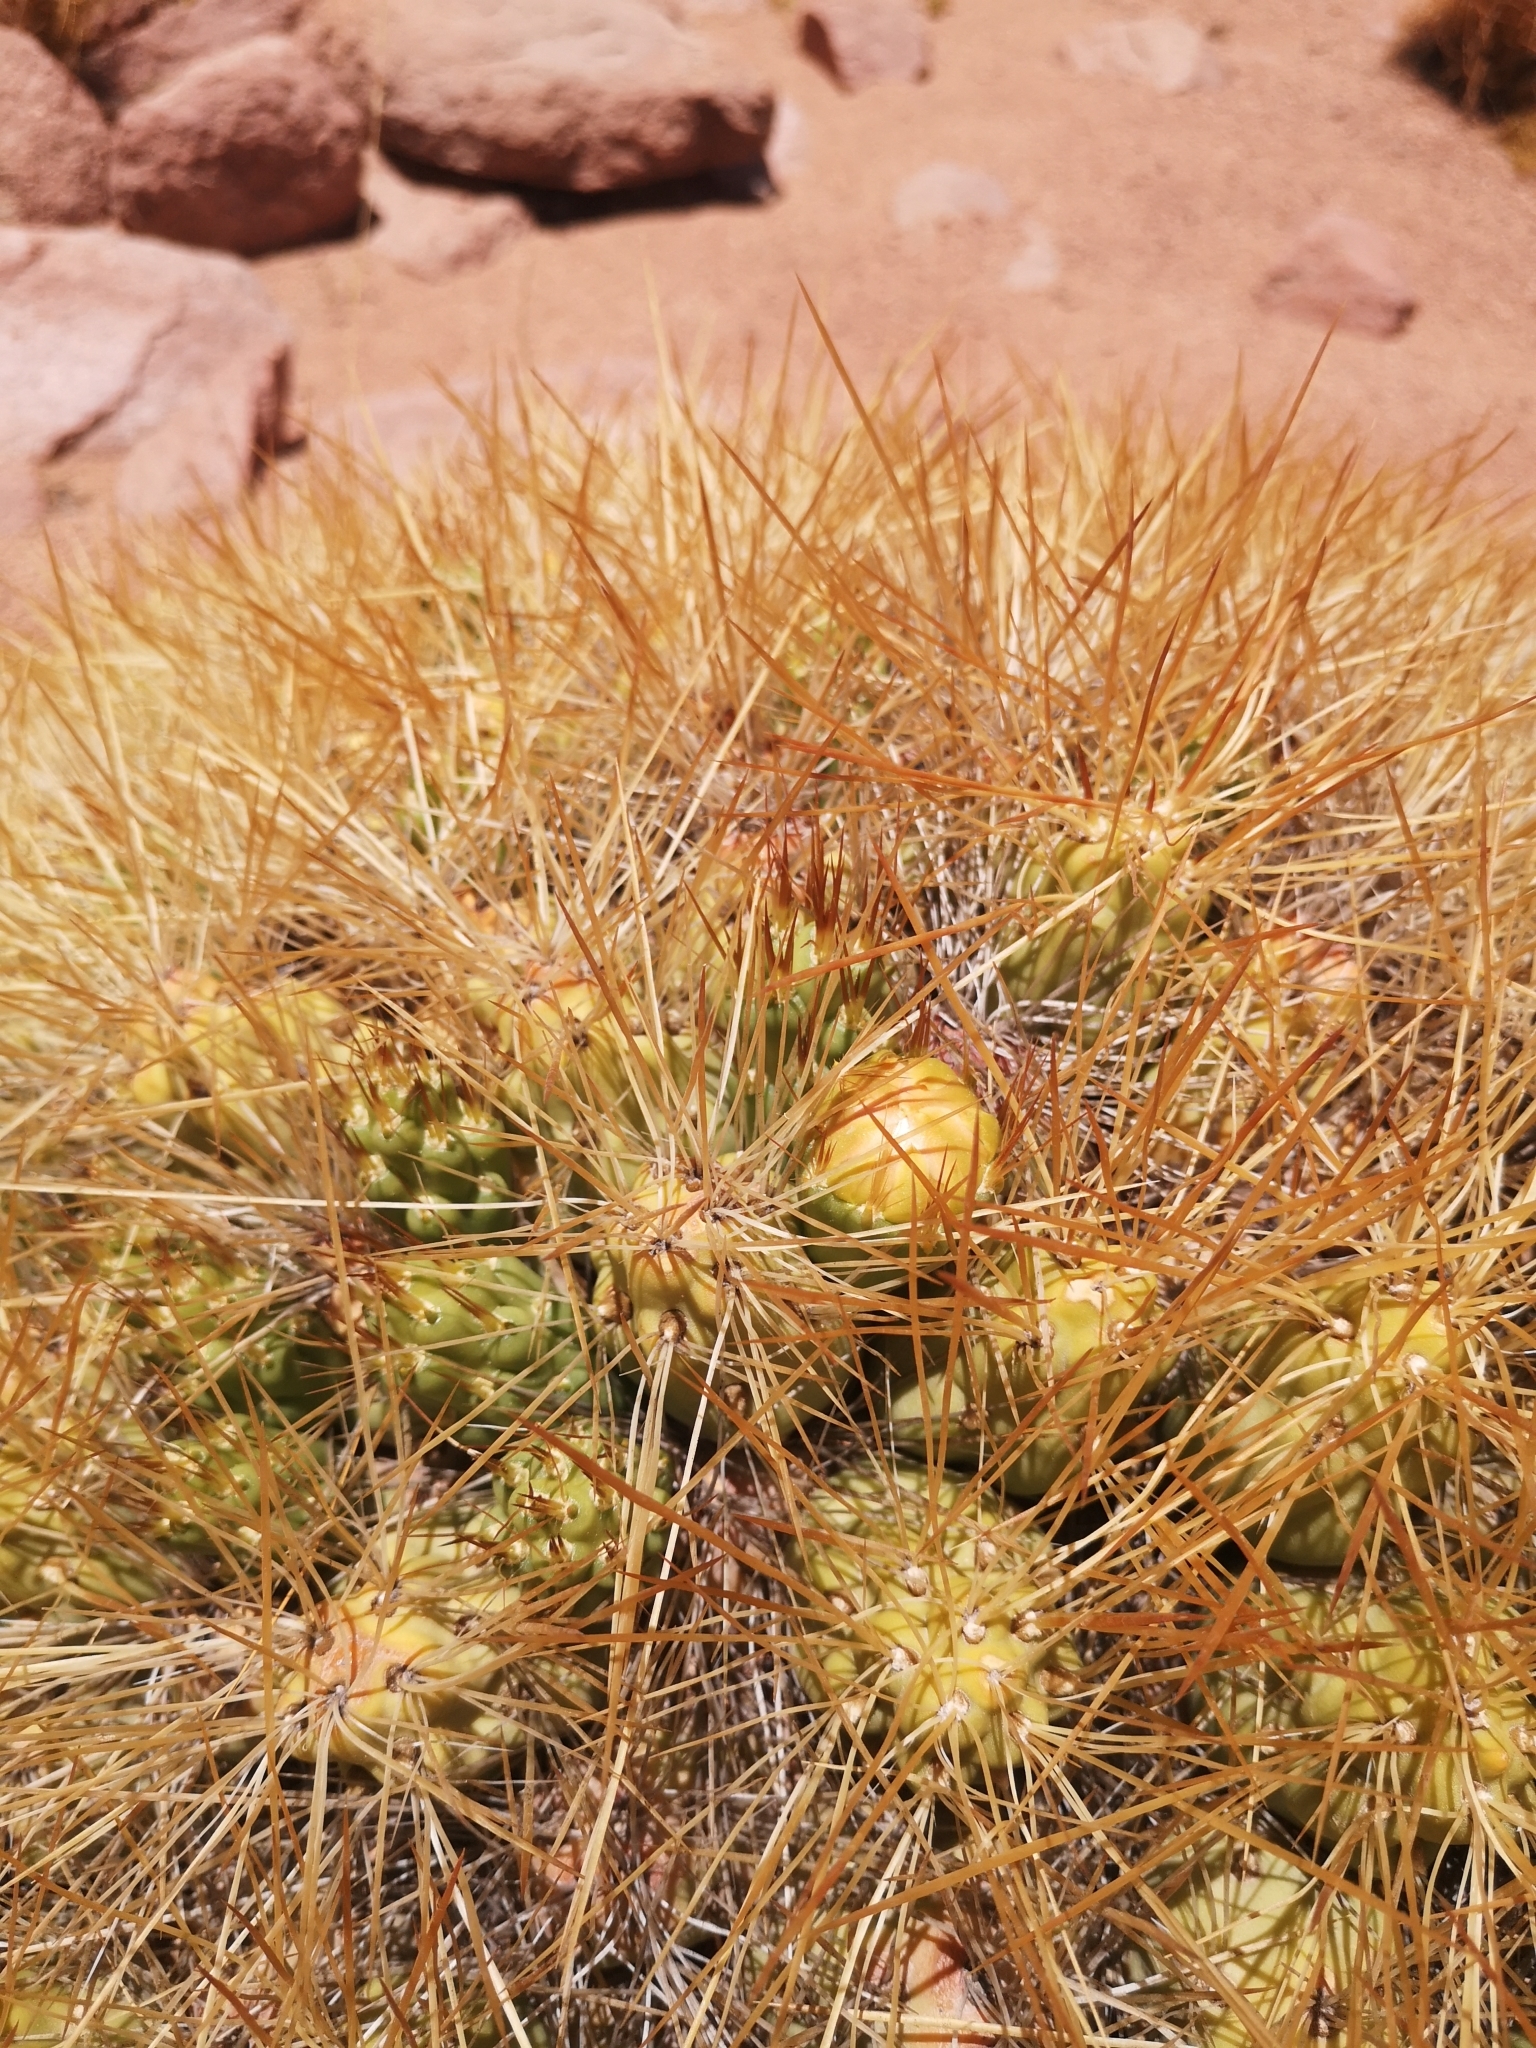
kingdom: Plantae
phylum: Tracheophyta
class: Magnoliopsida
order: Caryophyllales
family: Cactaceae
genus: Cumulopuntia
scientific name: Cumulopuntia boliviana
